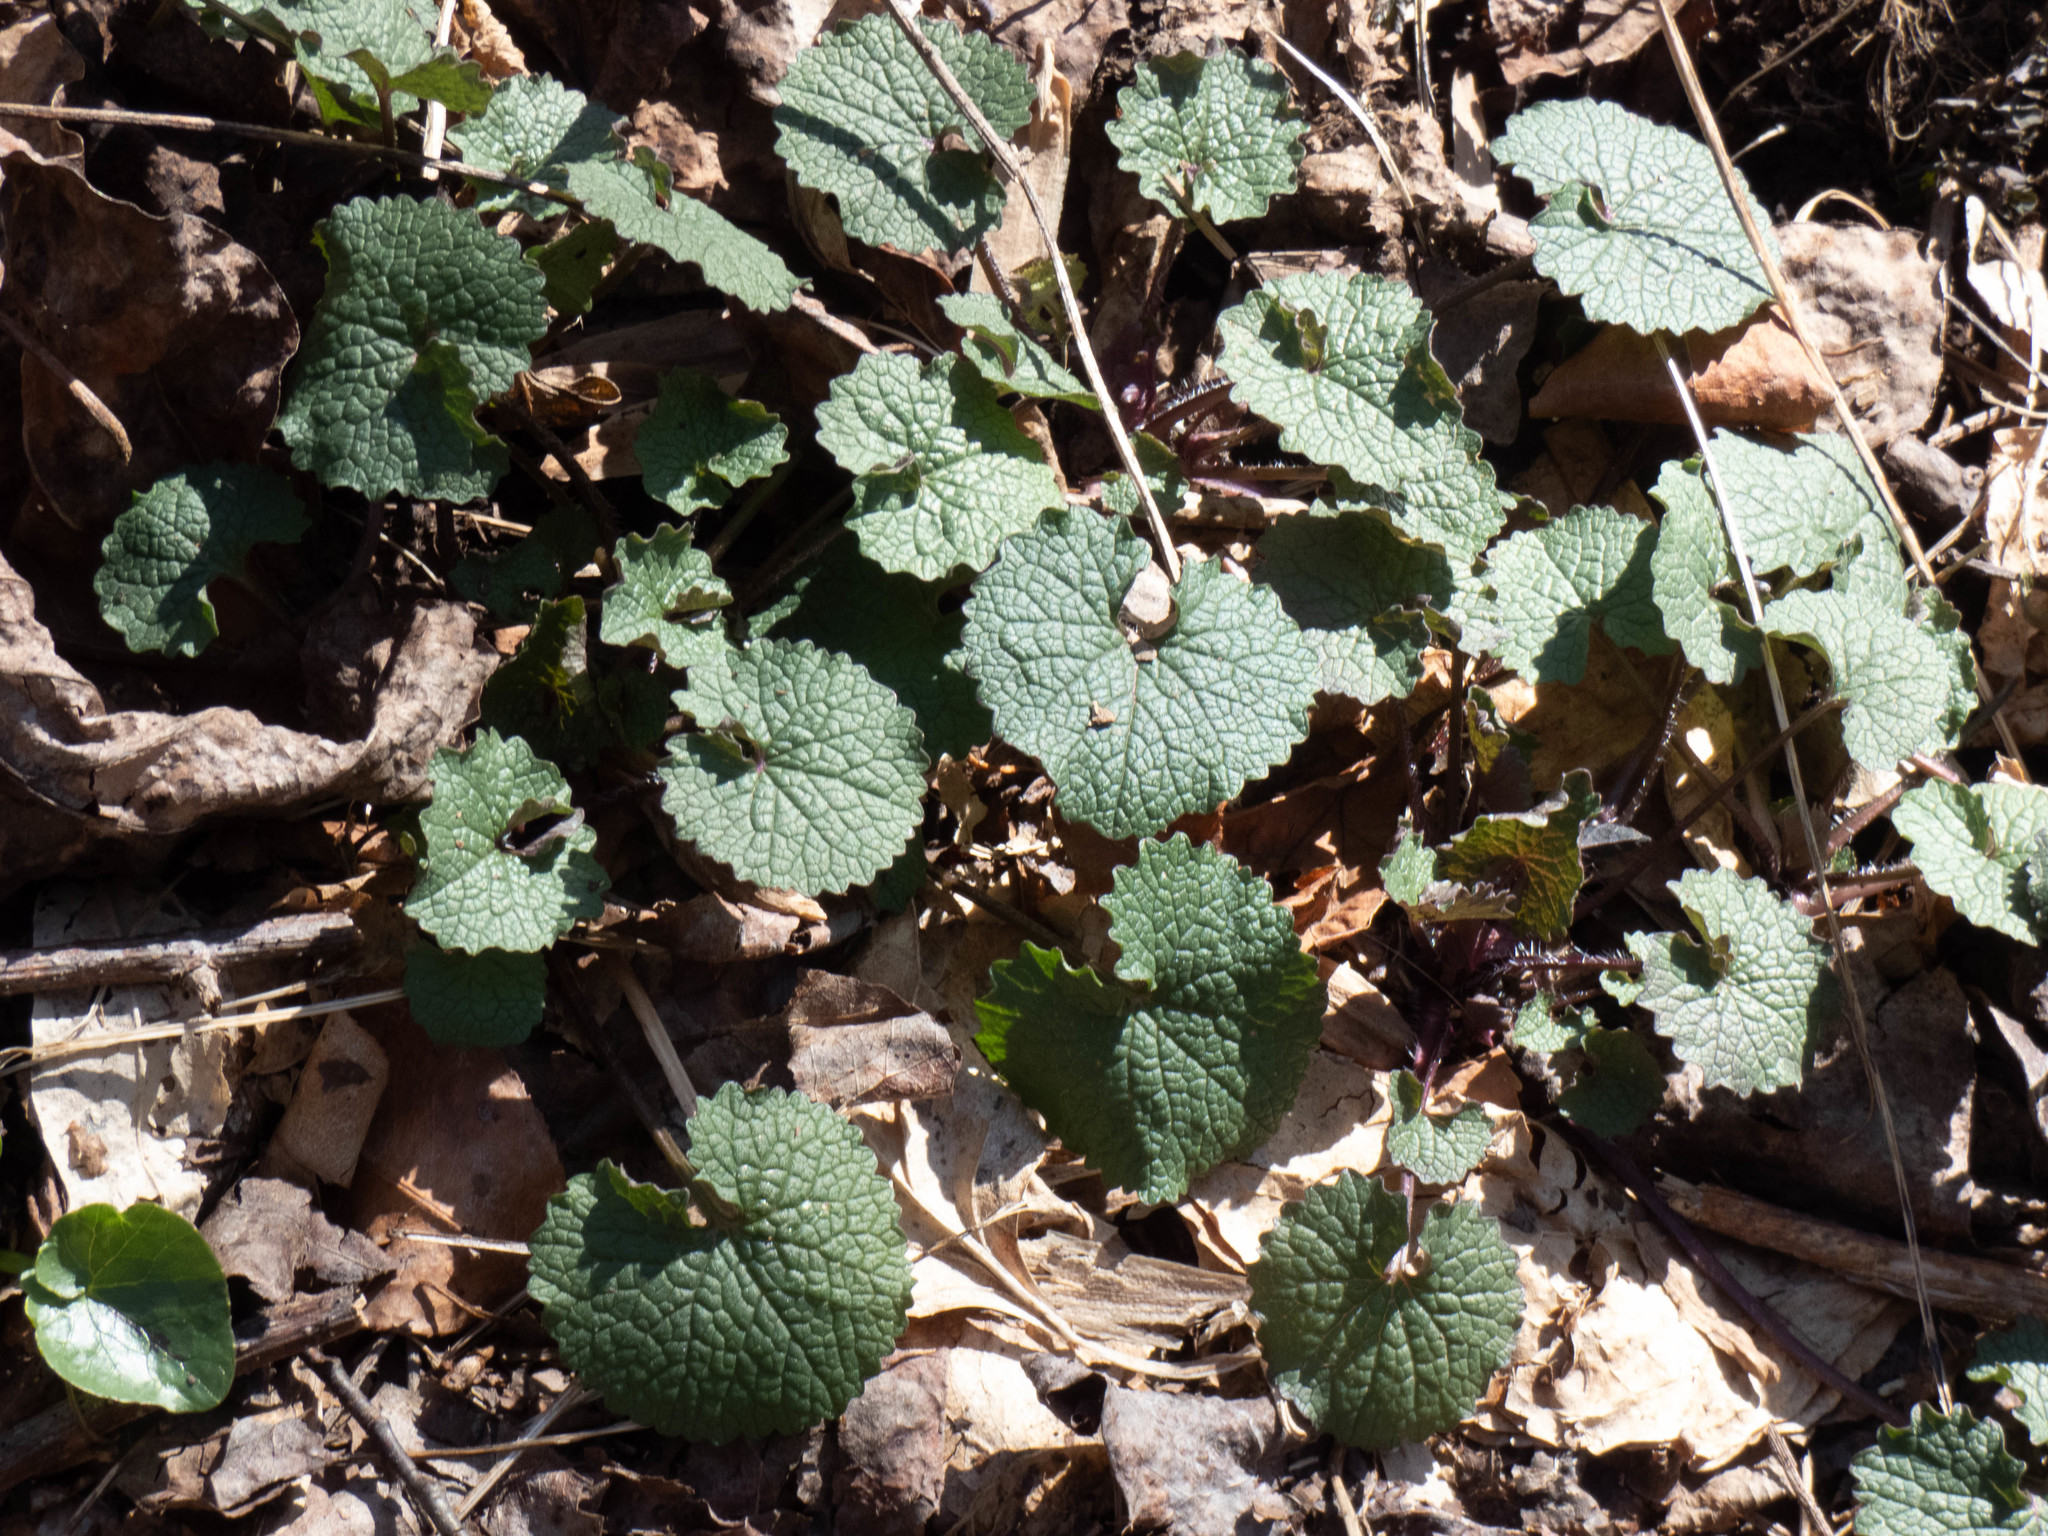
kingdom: Plantae
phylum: Tracheophyta
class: Magnoliopsida
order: Brassicales
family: Brassicaceae
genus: Alliaria
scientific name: Alliaria petiolata
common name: Garlic mustard
